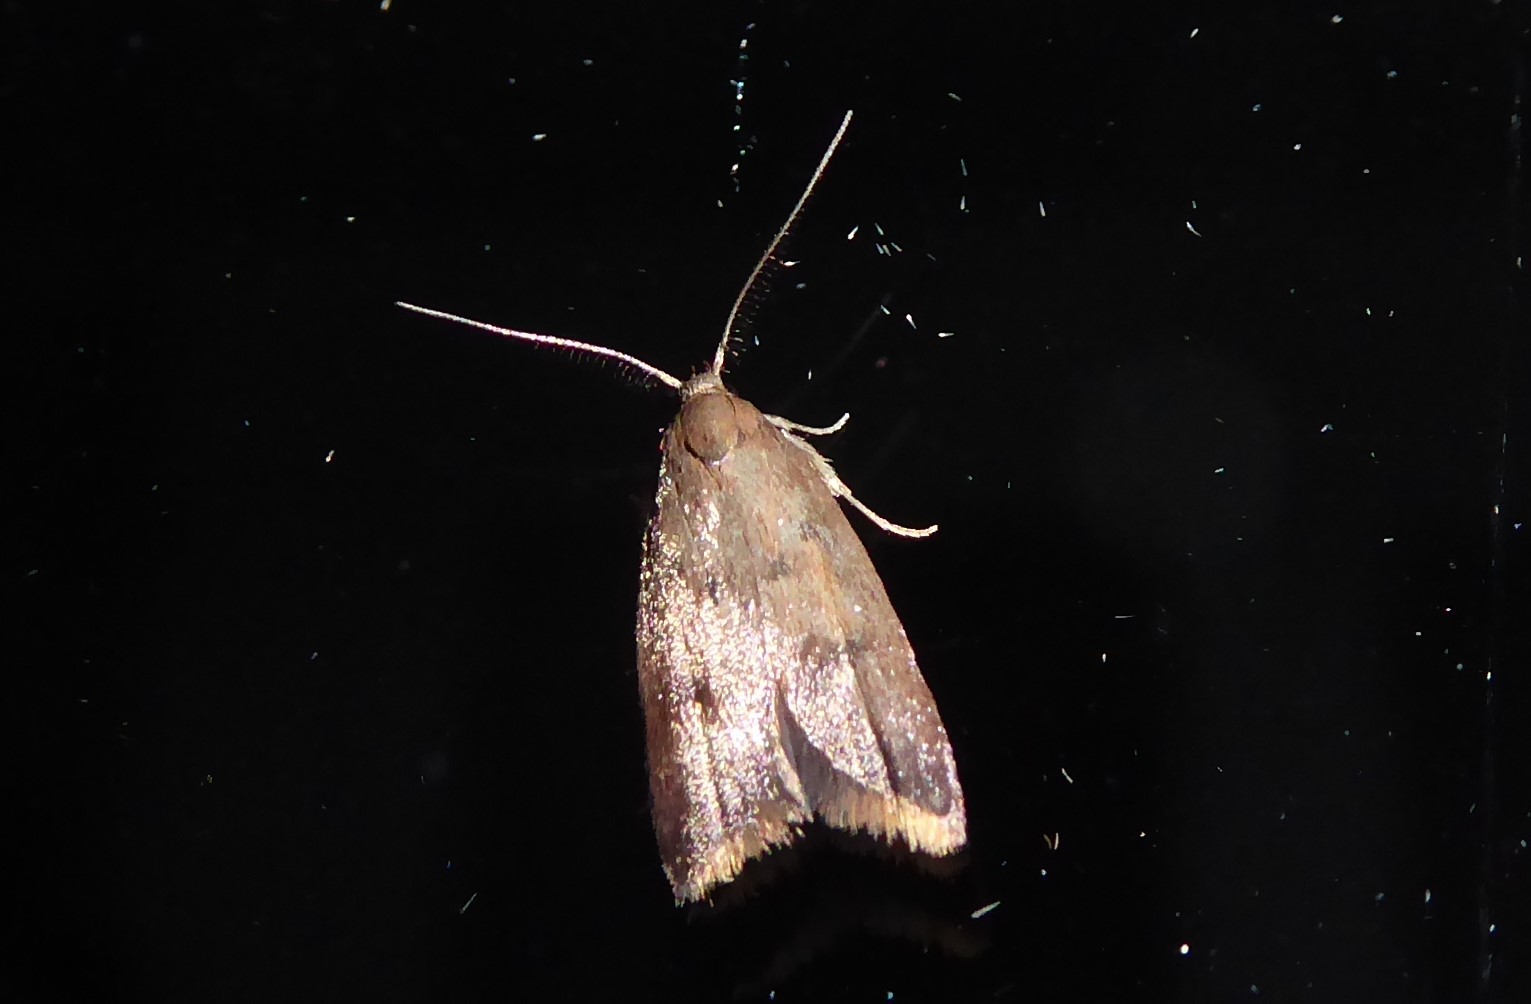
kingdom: Animalia
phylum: Arthropoda
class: Insecta
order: Lepidoptera
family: Oecophoridae
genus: Tachystola
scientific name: Tachystola acroxantha
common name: Ruddy streak
